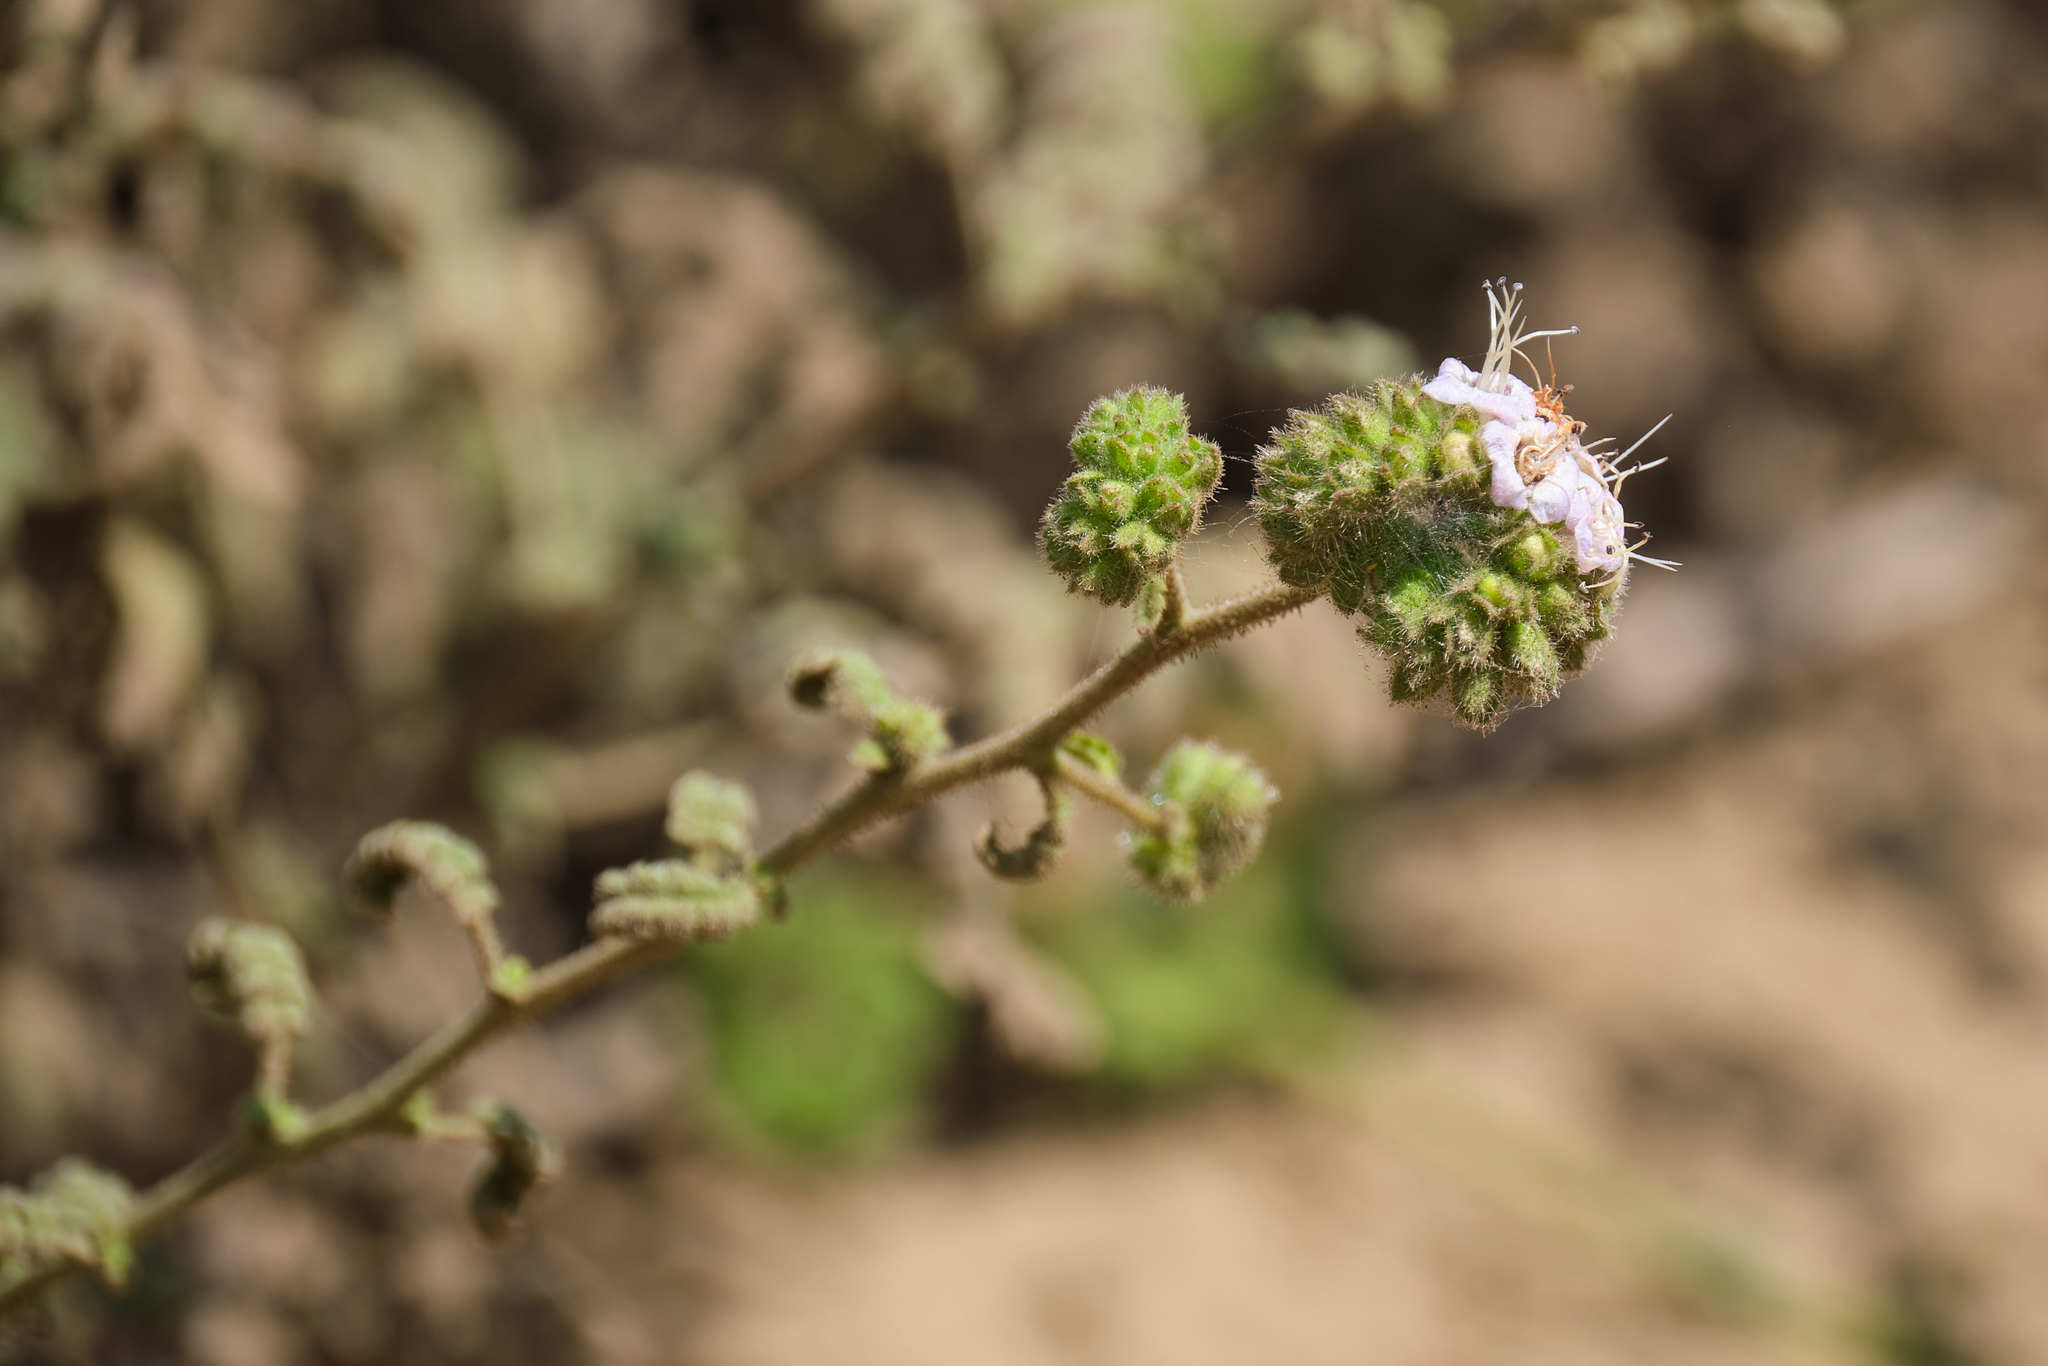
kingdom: Plantae
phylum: Tracheophyta
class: Magnoliopsida
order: Boraginales
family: Hydrophyllaceae
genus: Phacelia
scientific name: Phacelia ramosissima
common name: Branching phacelia
